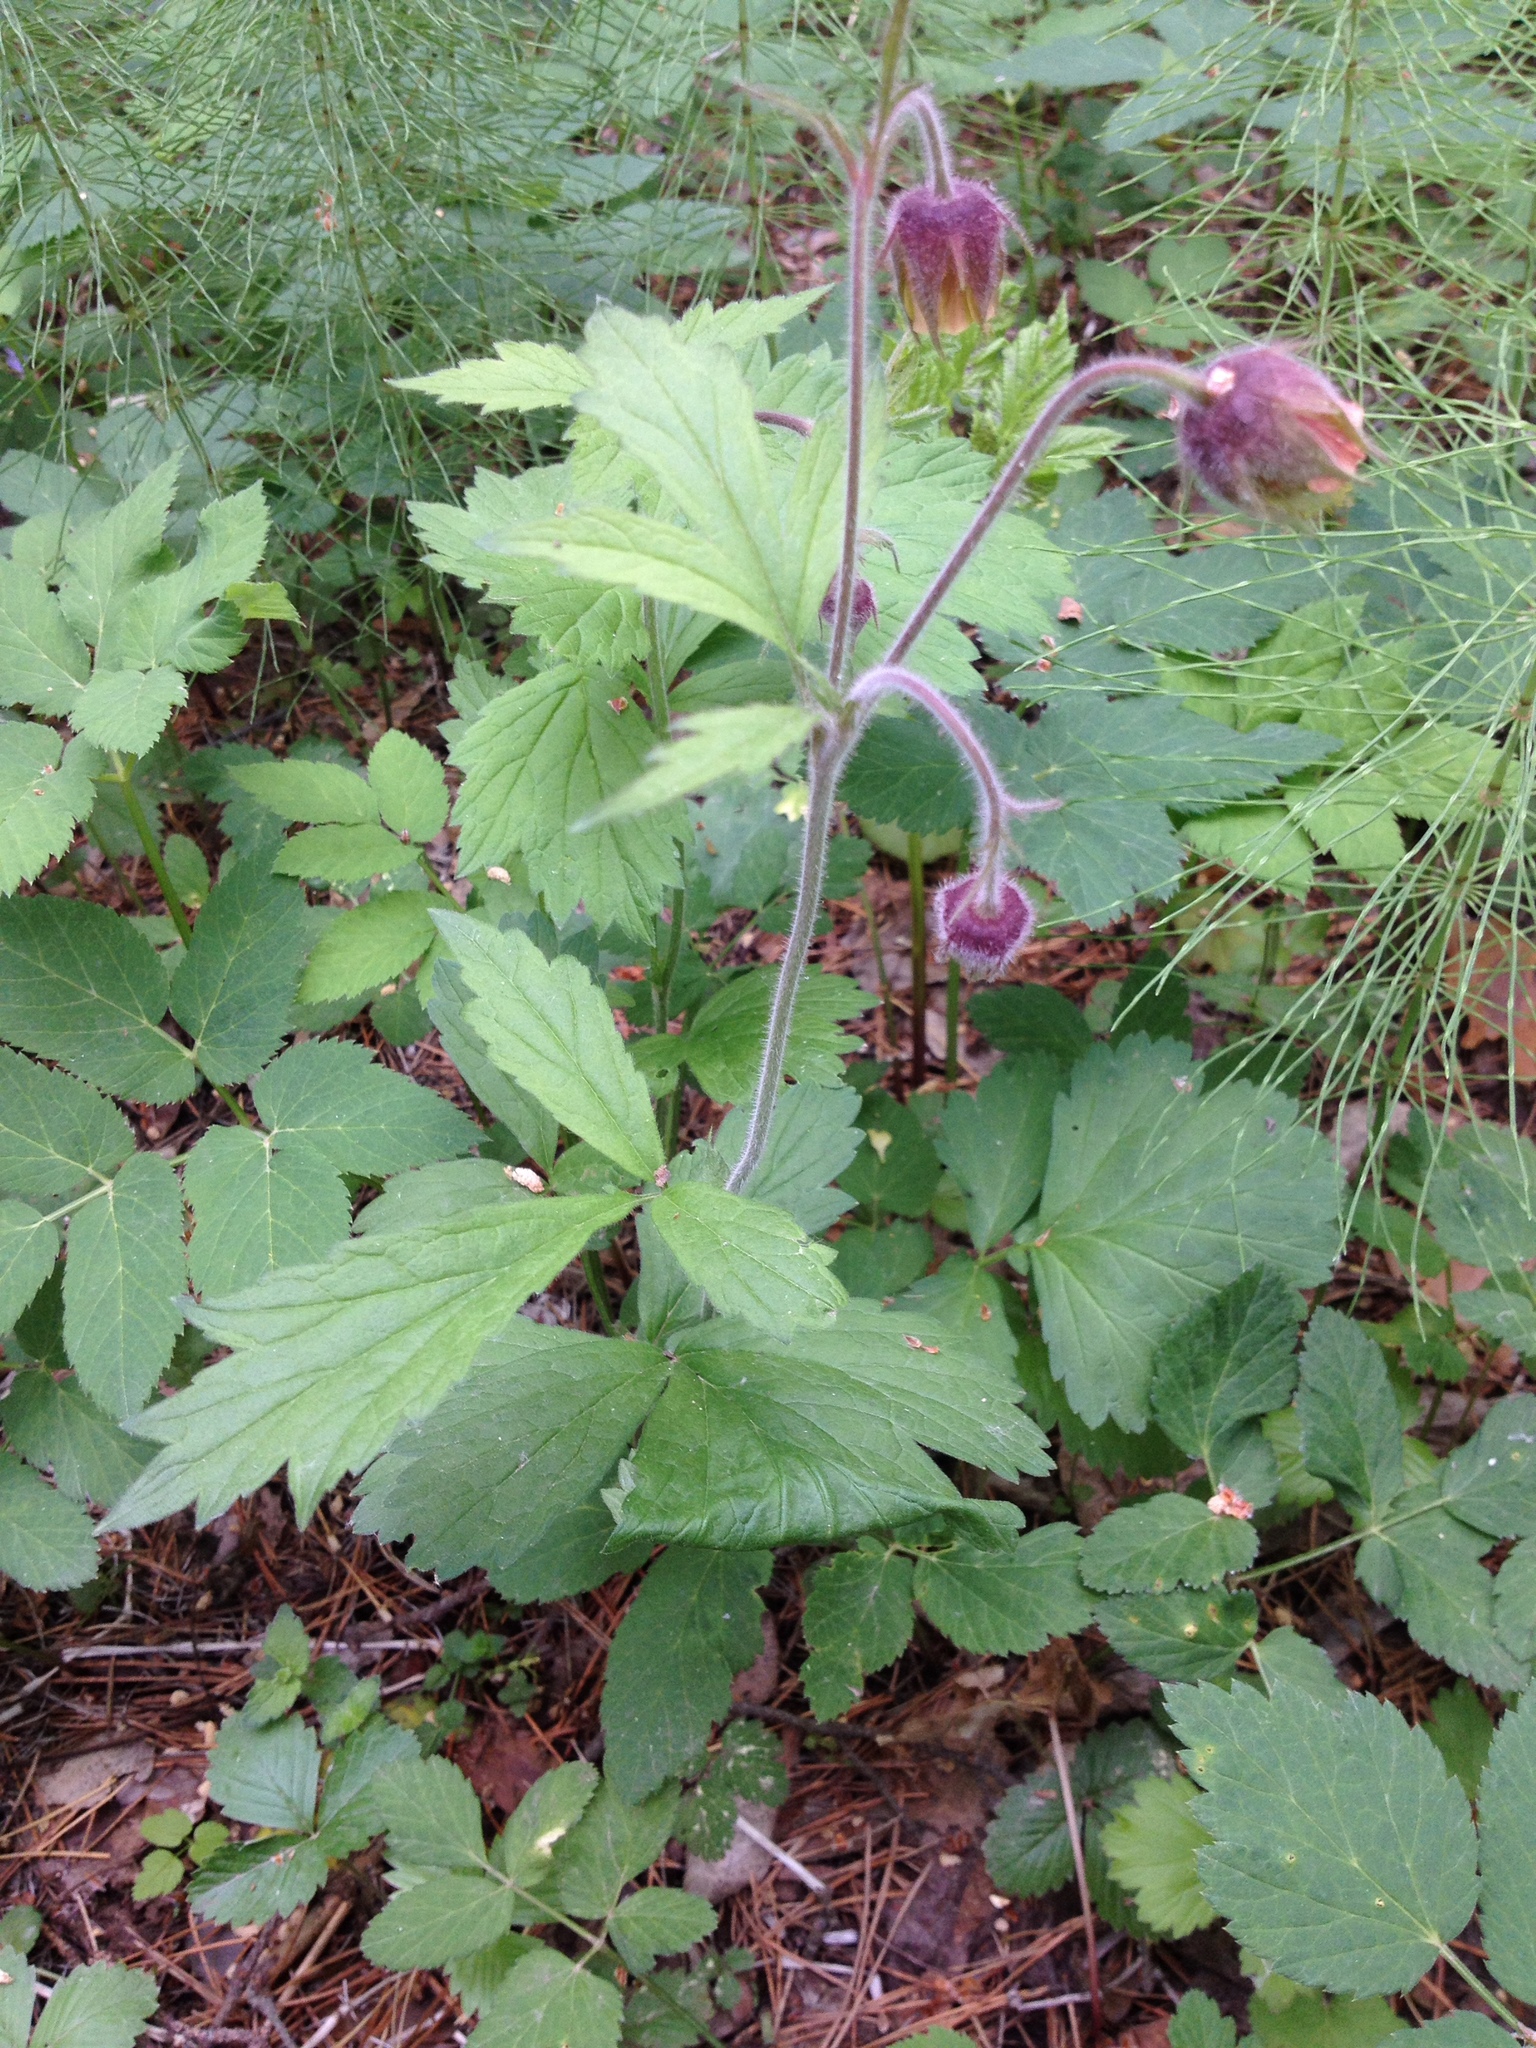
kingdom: Plantae
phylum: Tracheophyta
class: Magnoliopsida
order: Rosales
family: Rosaceae
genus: Geum
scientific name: Geum rivale
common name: Water avens
